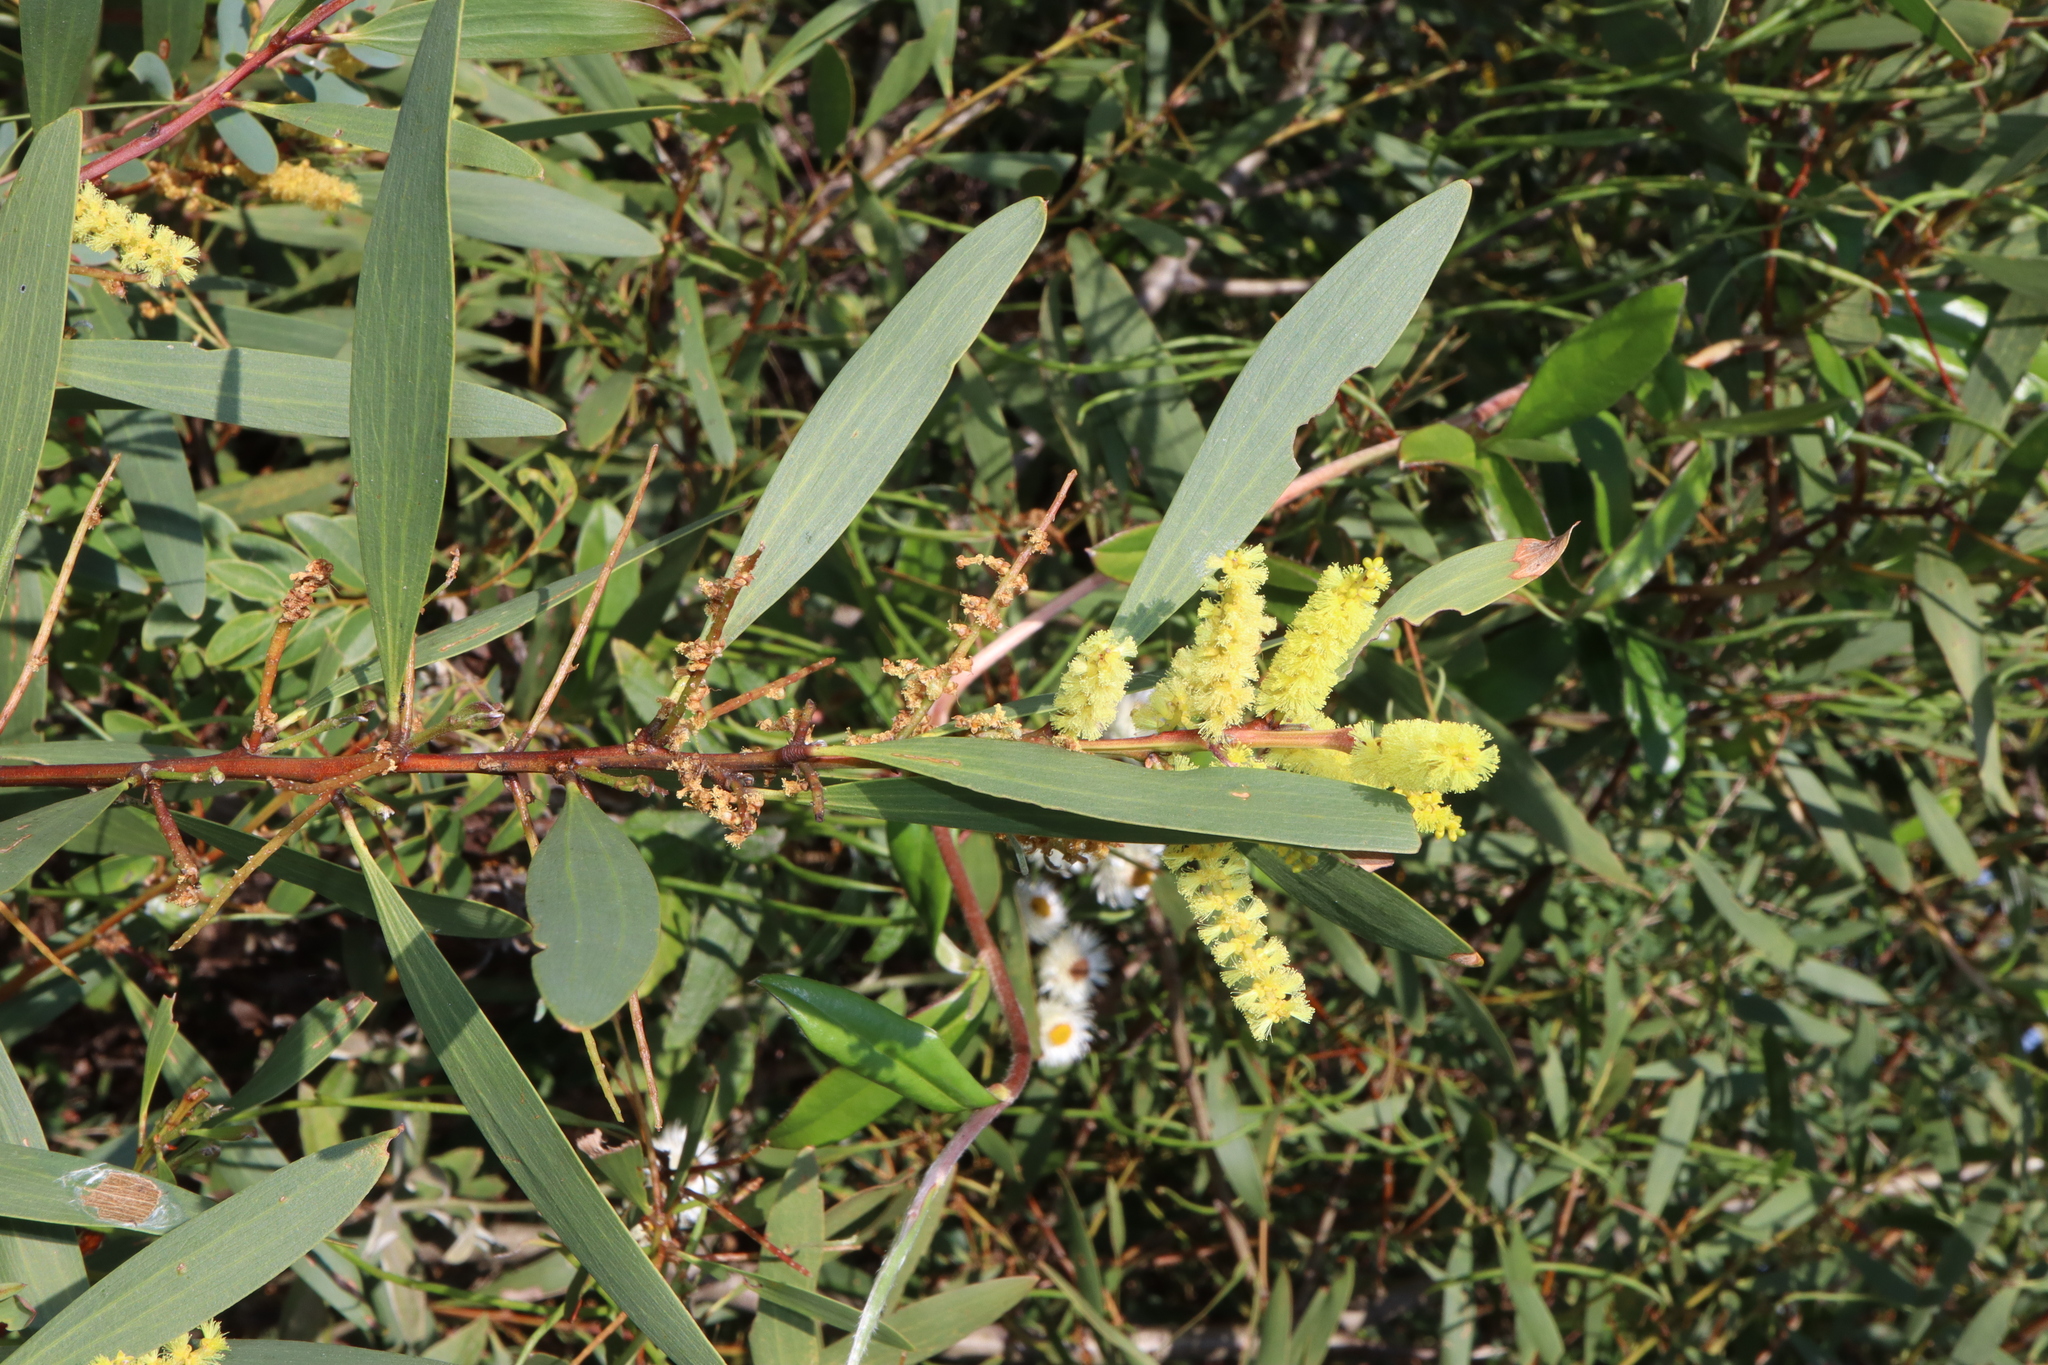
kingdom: Plantae
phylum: Tracheophyta
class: Magnoliopsida
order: Fabales
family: Fabaceae
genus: Acacia
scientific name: Acacia longifolia
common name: Sydney golden wattle
